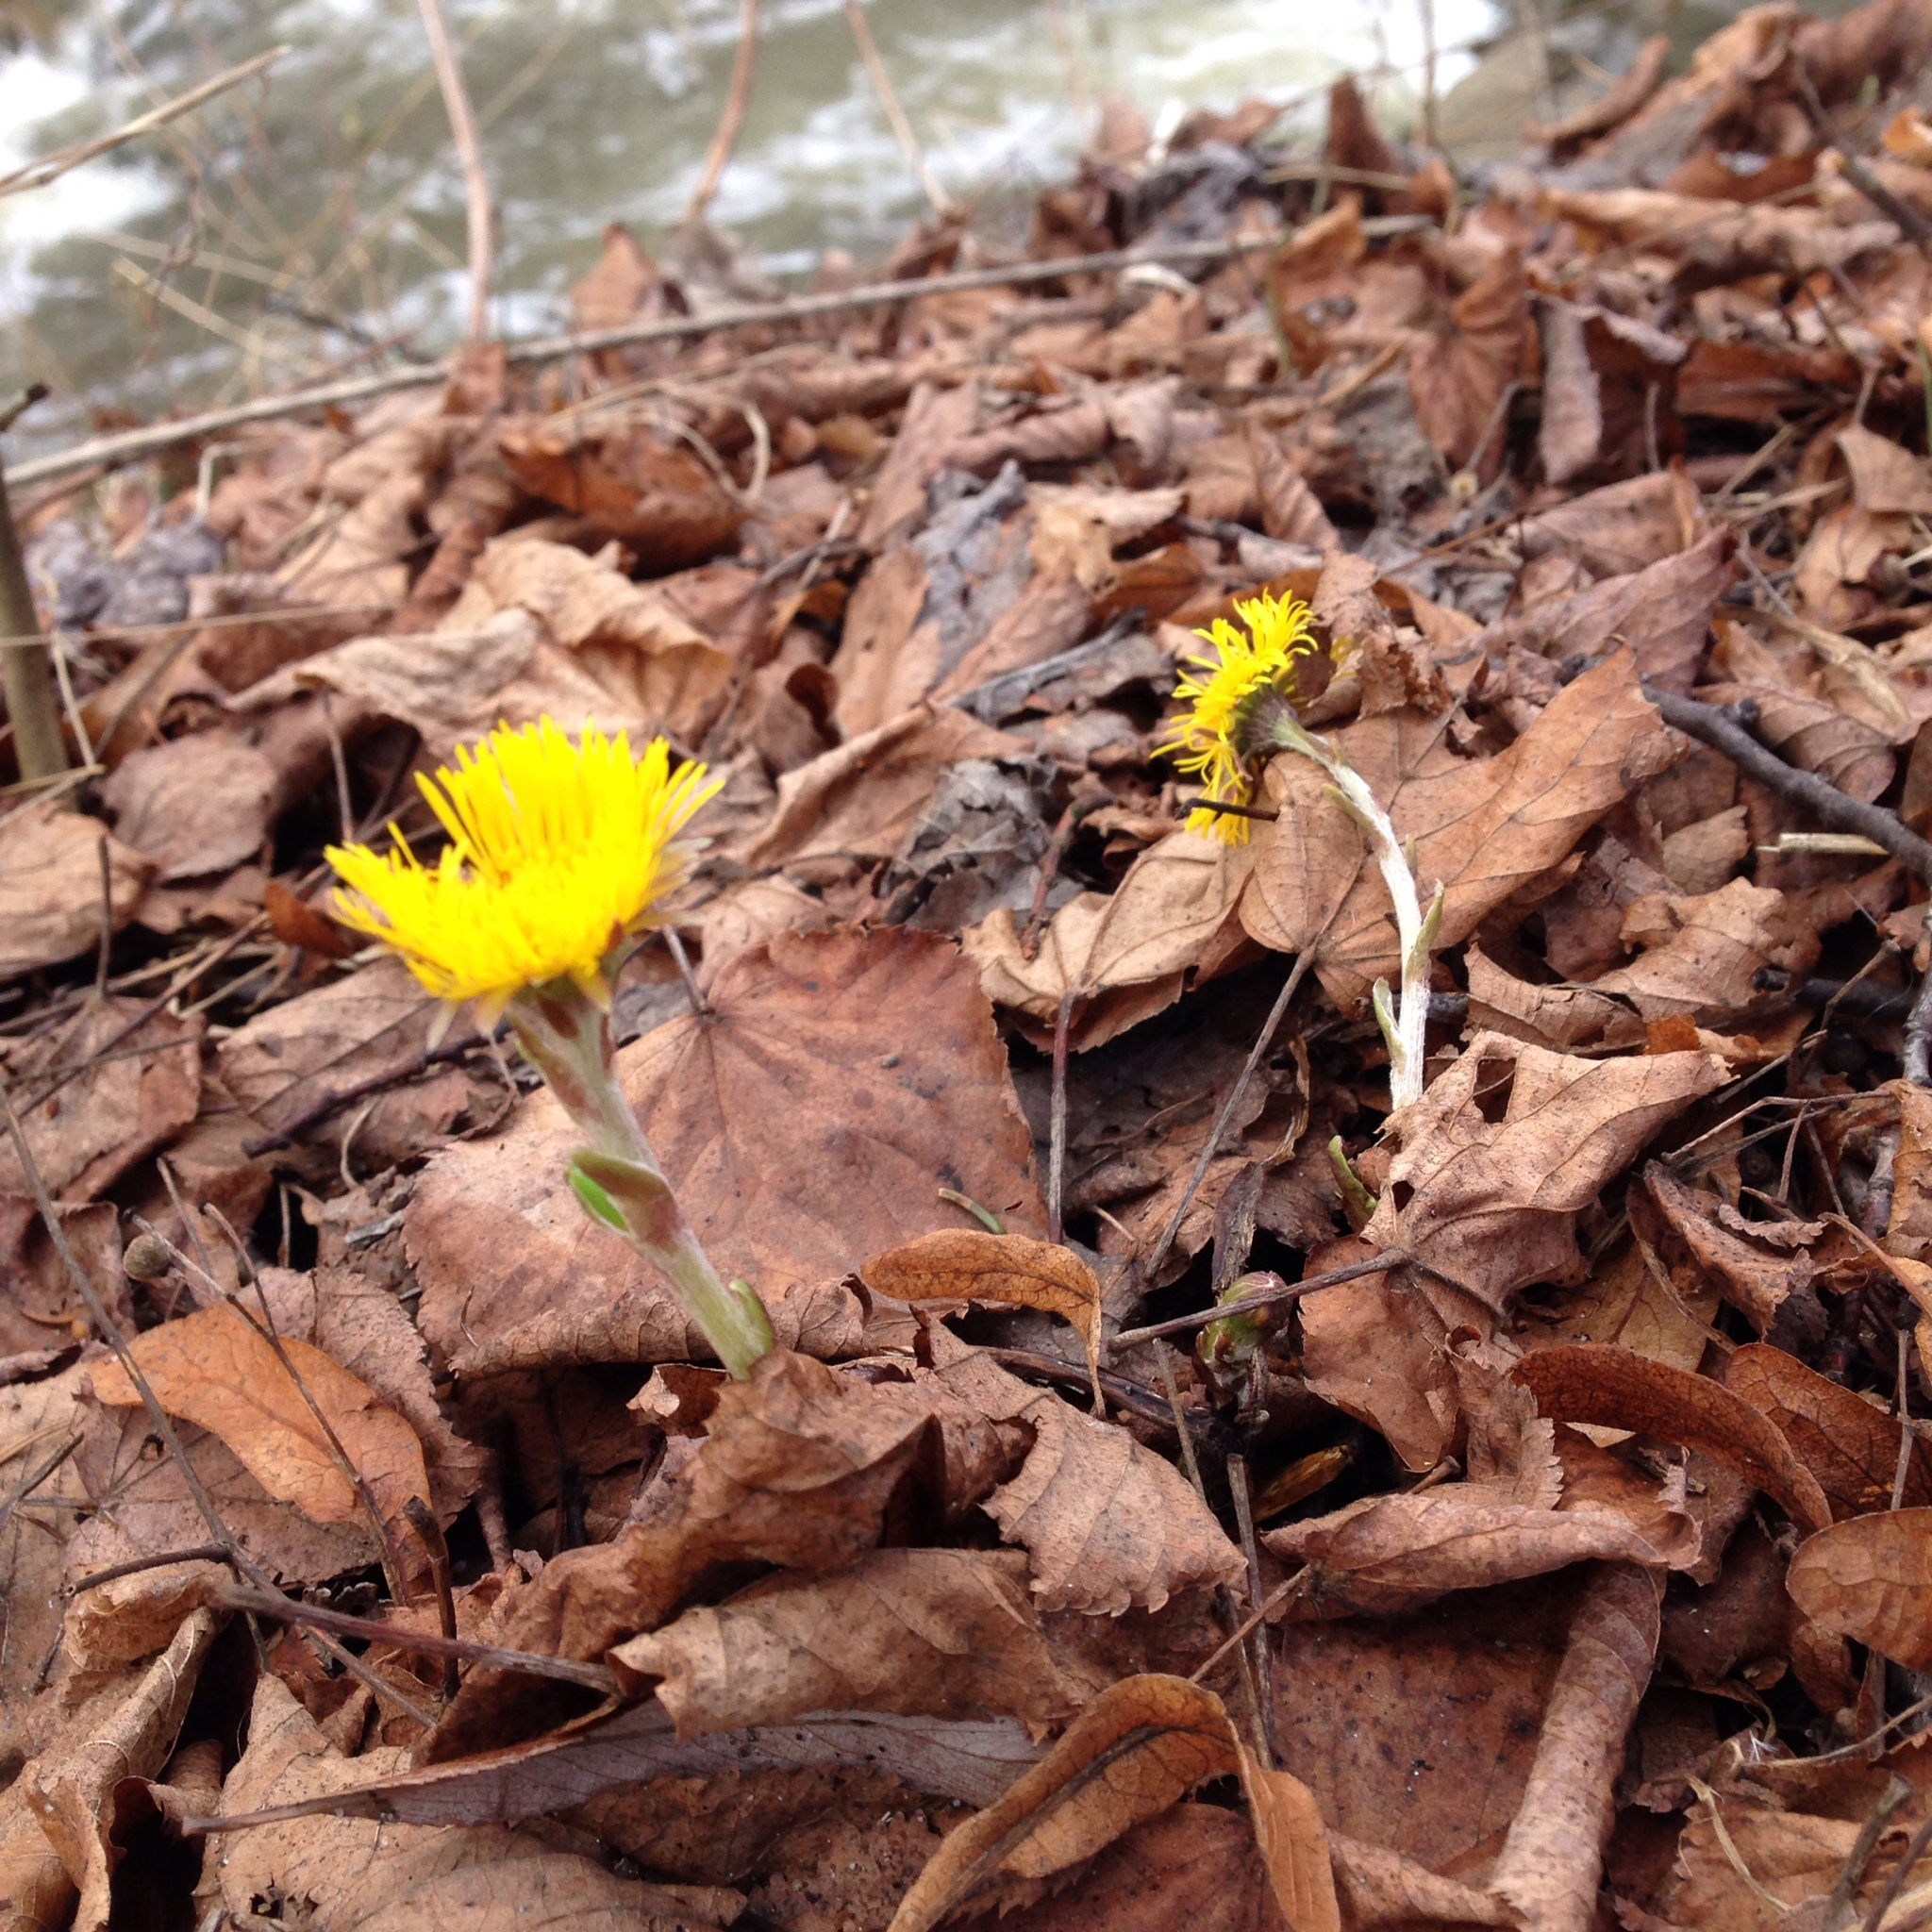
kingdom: Plantae
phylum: Tracheophyta
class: Magnoliopsida
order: Asterales
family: Asteraceae
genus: Tussilago
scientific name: Tussilago farfara
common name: Coltsfoot
